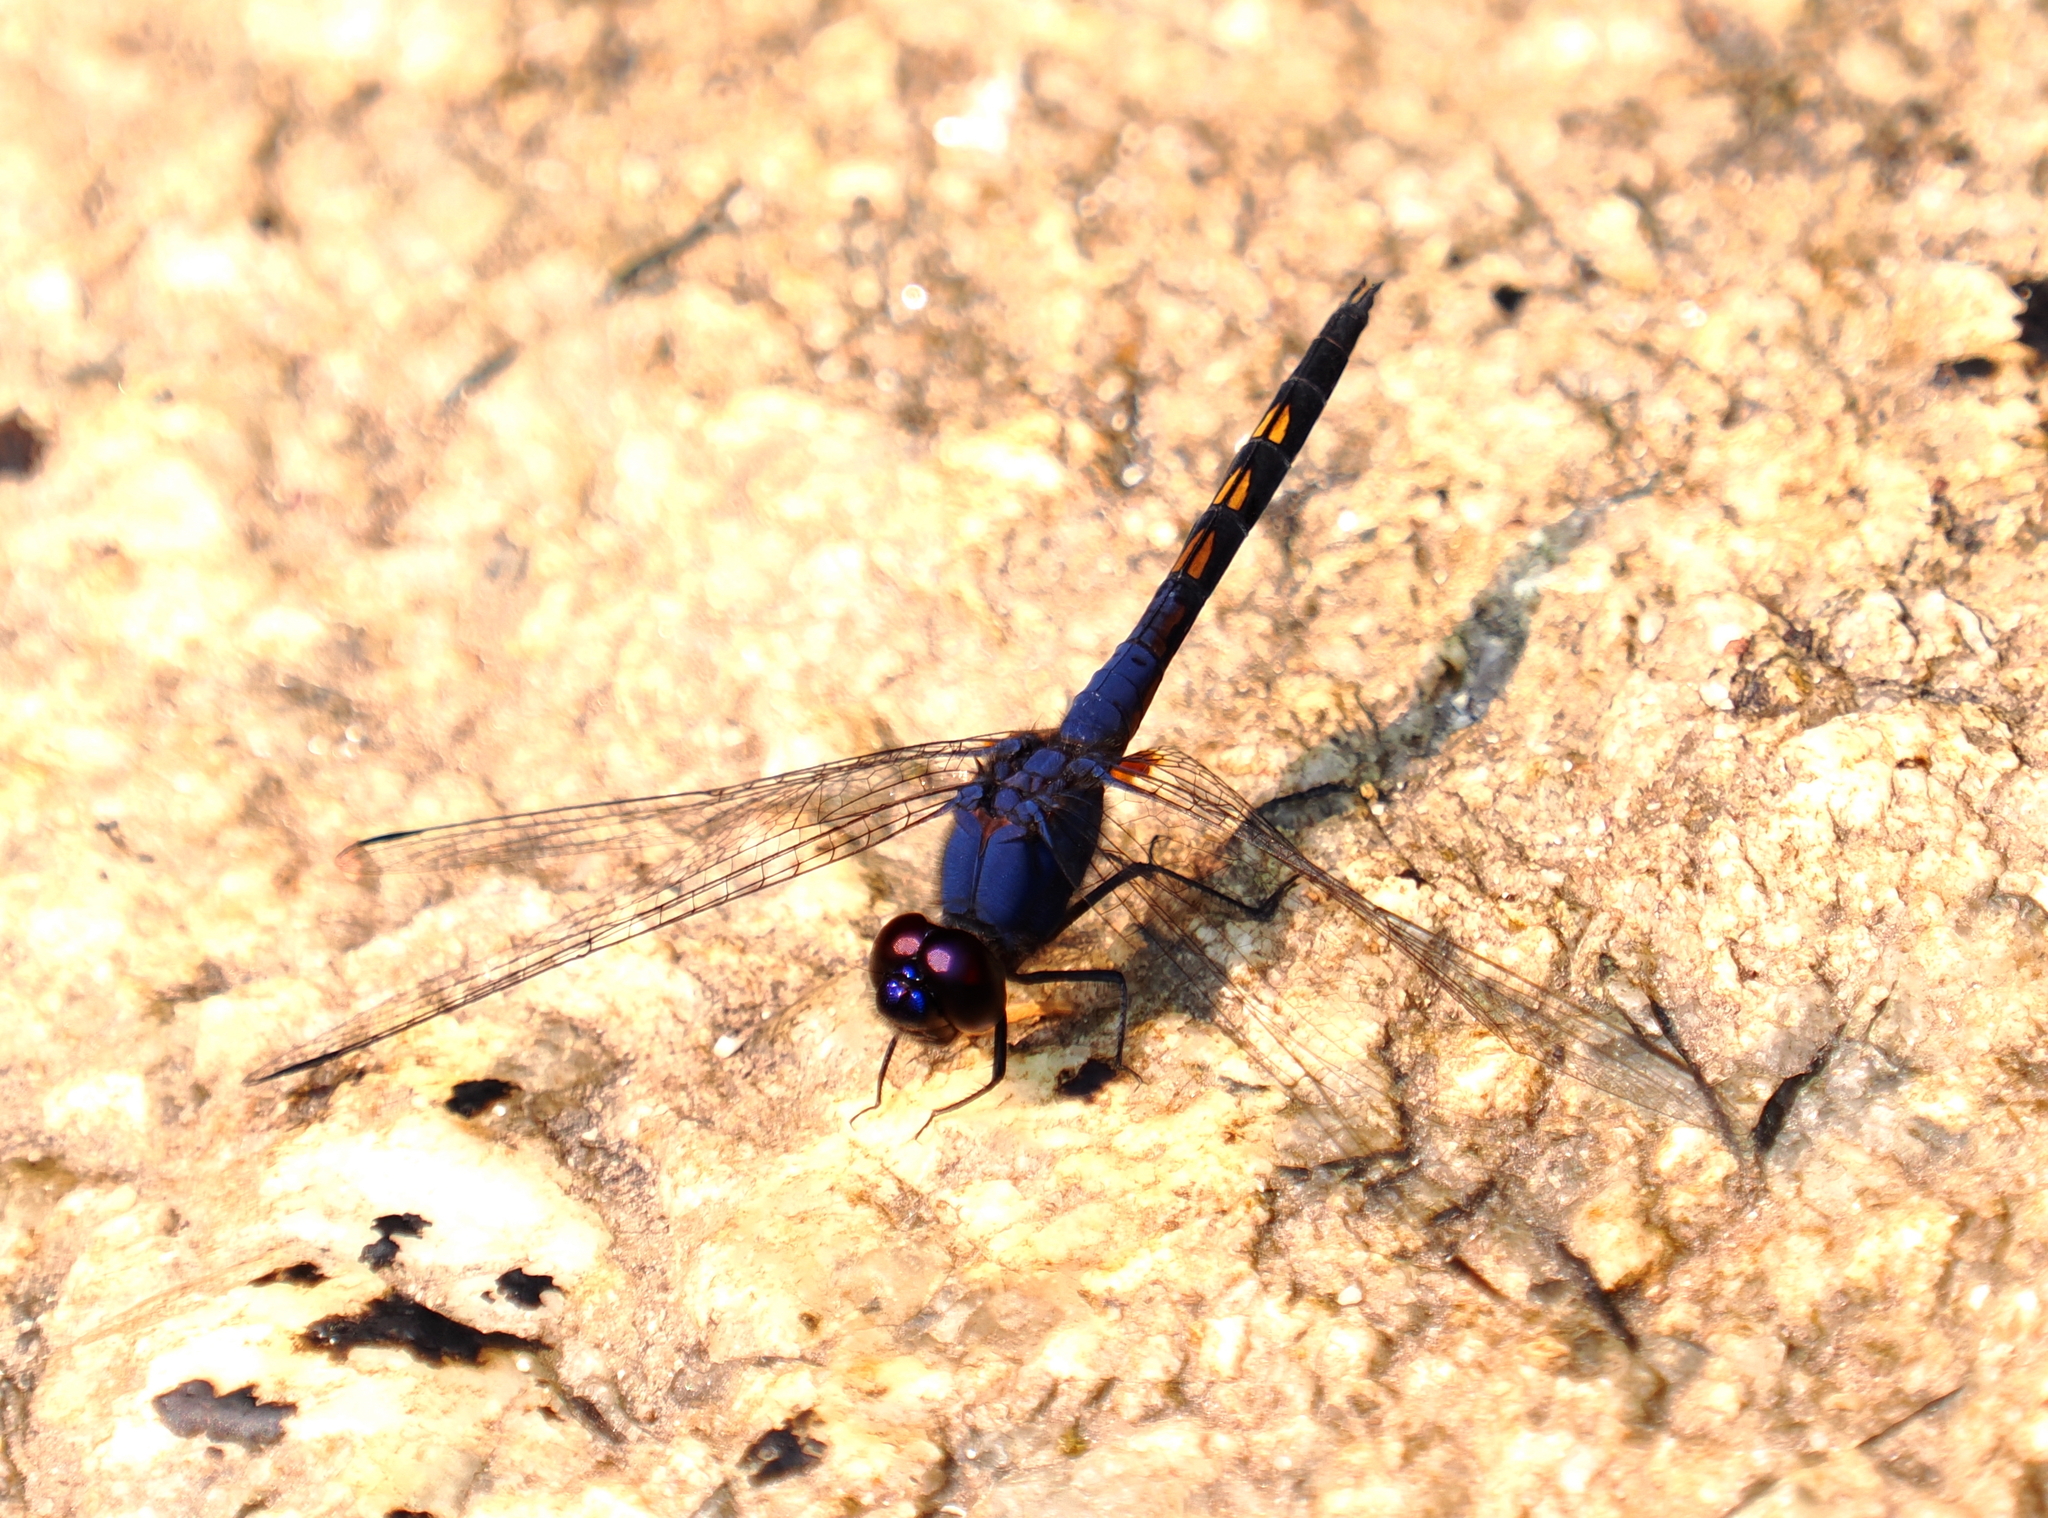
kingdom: Animalia
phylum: Arthropoda
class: Insecta
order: Odonata
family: Libellulidae
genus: Trithemis
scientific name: Trithemis festiva
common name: Indigo dropwing
